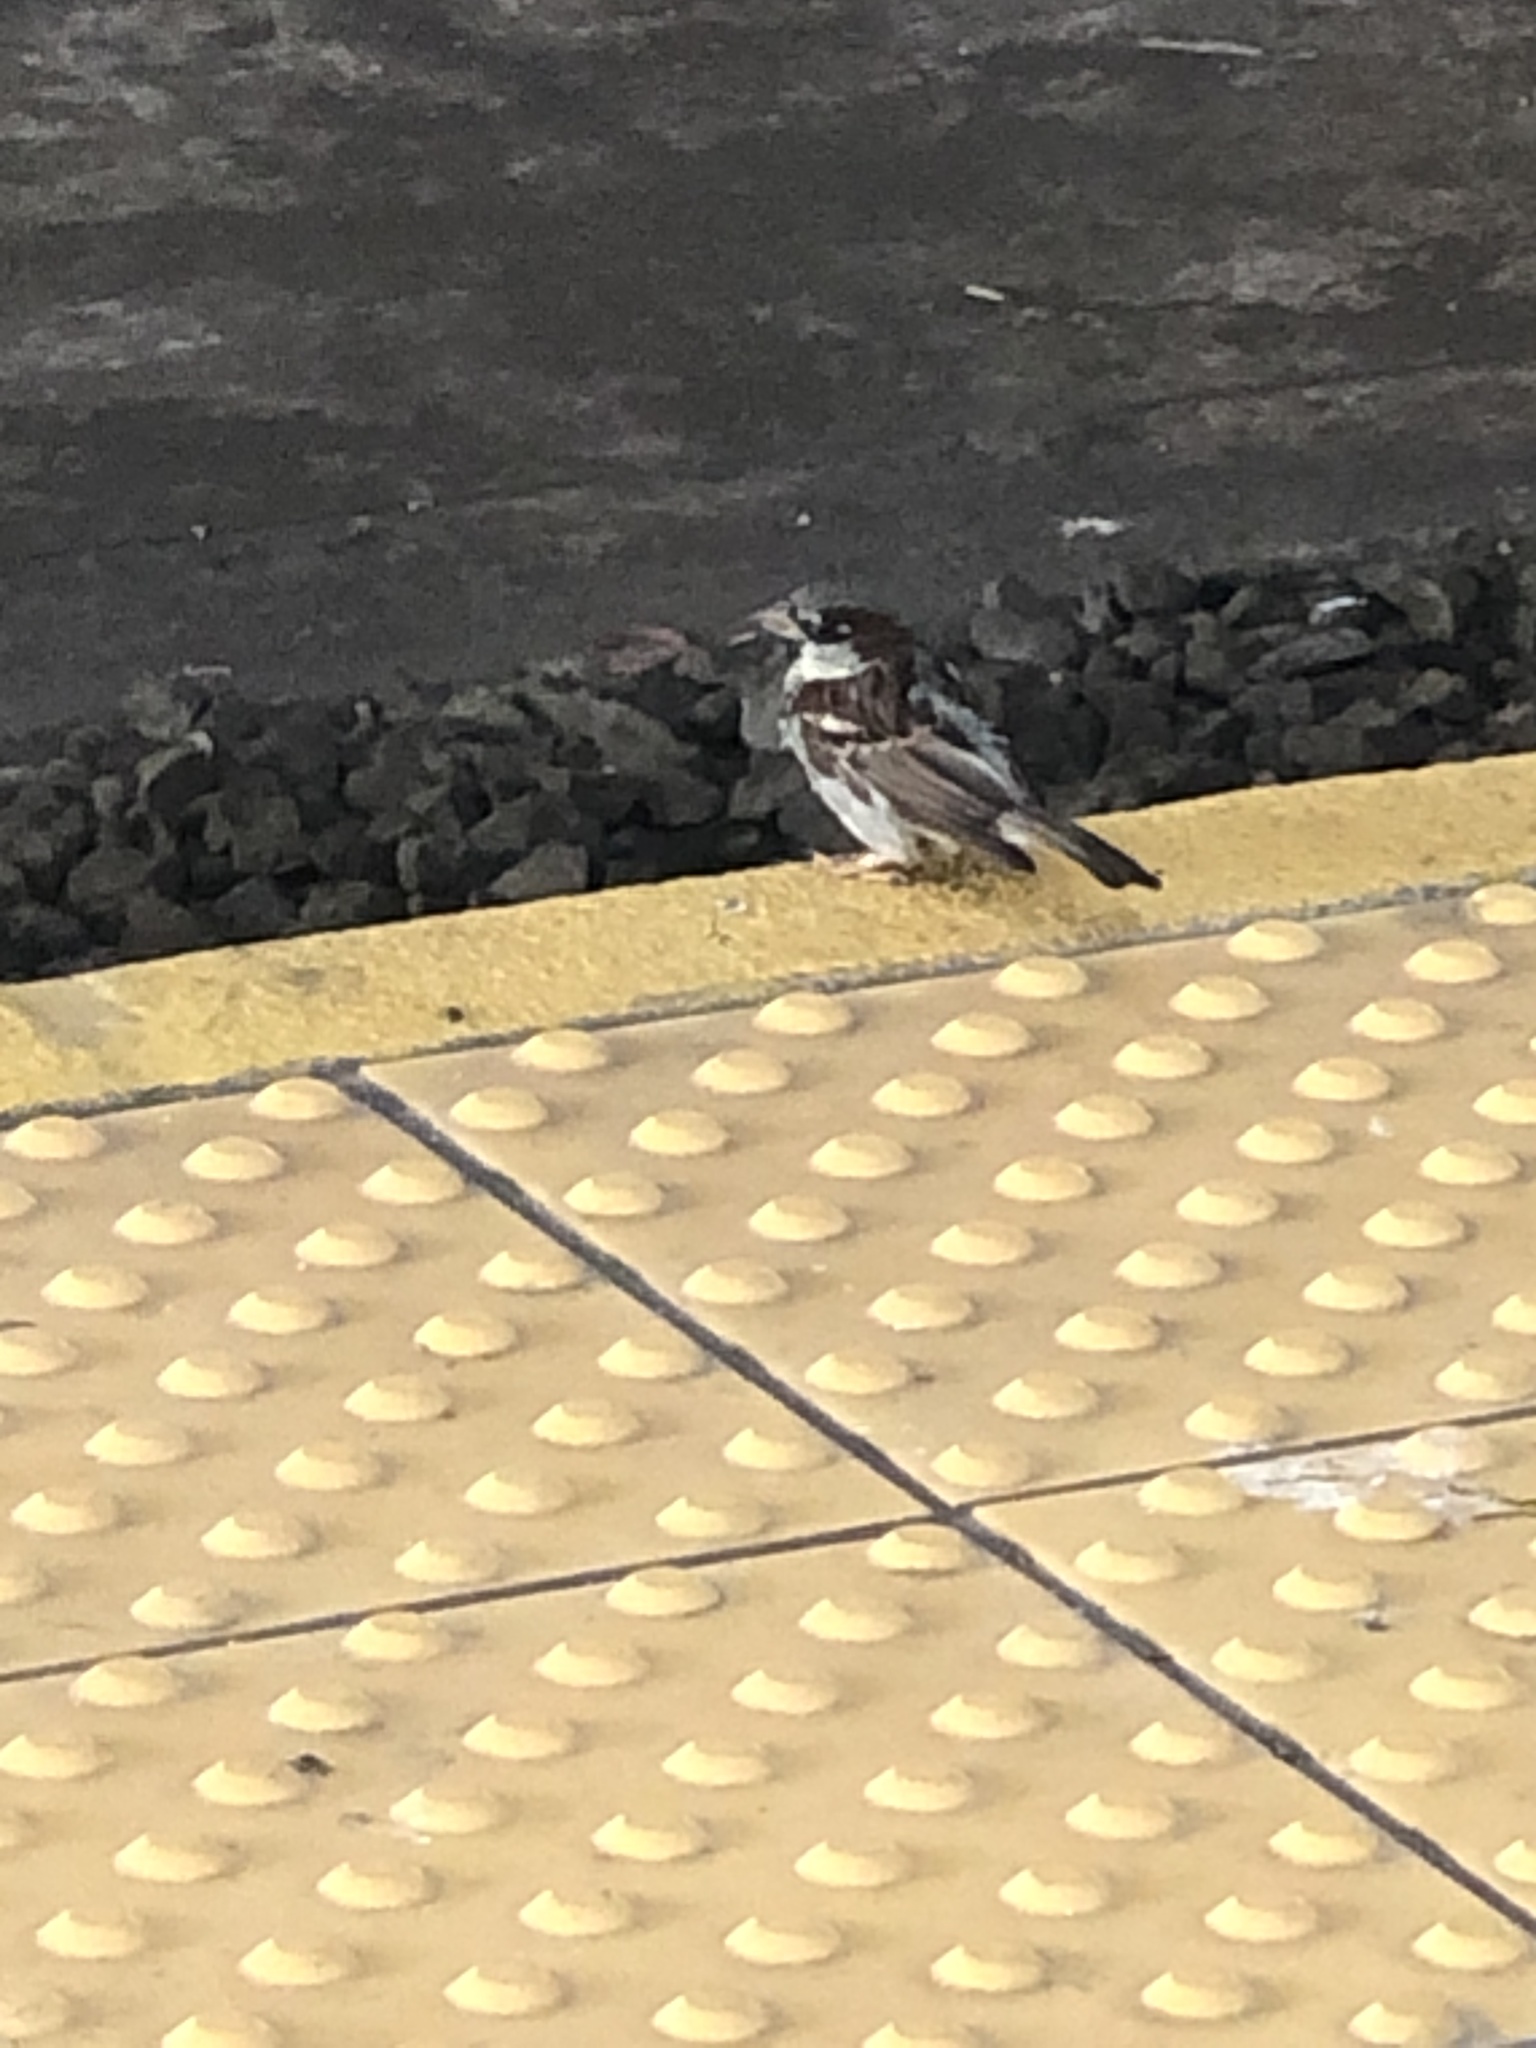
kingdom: Animalia
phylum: Chordata
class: Aves
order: Passeriformes
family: Passeridae
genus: Passer
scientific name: Passer domesticus
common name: House sparrow
